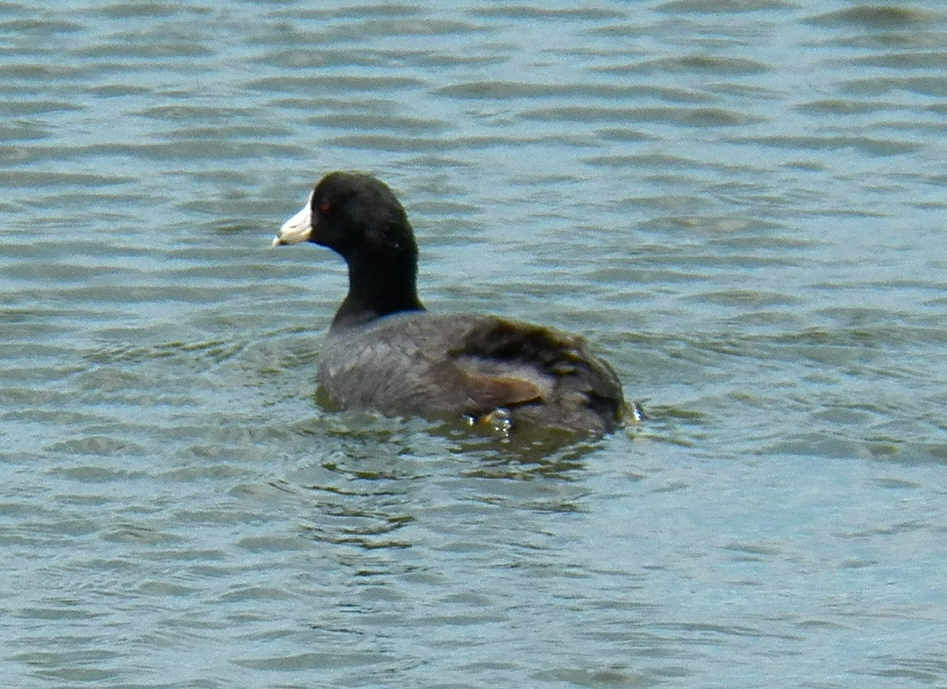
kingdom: Animalia
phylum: Chordata
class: Aves
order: Gruiformes
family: Rallidae
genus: Fulica
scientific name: Fulica americana
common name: American coot
